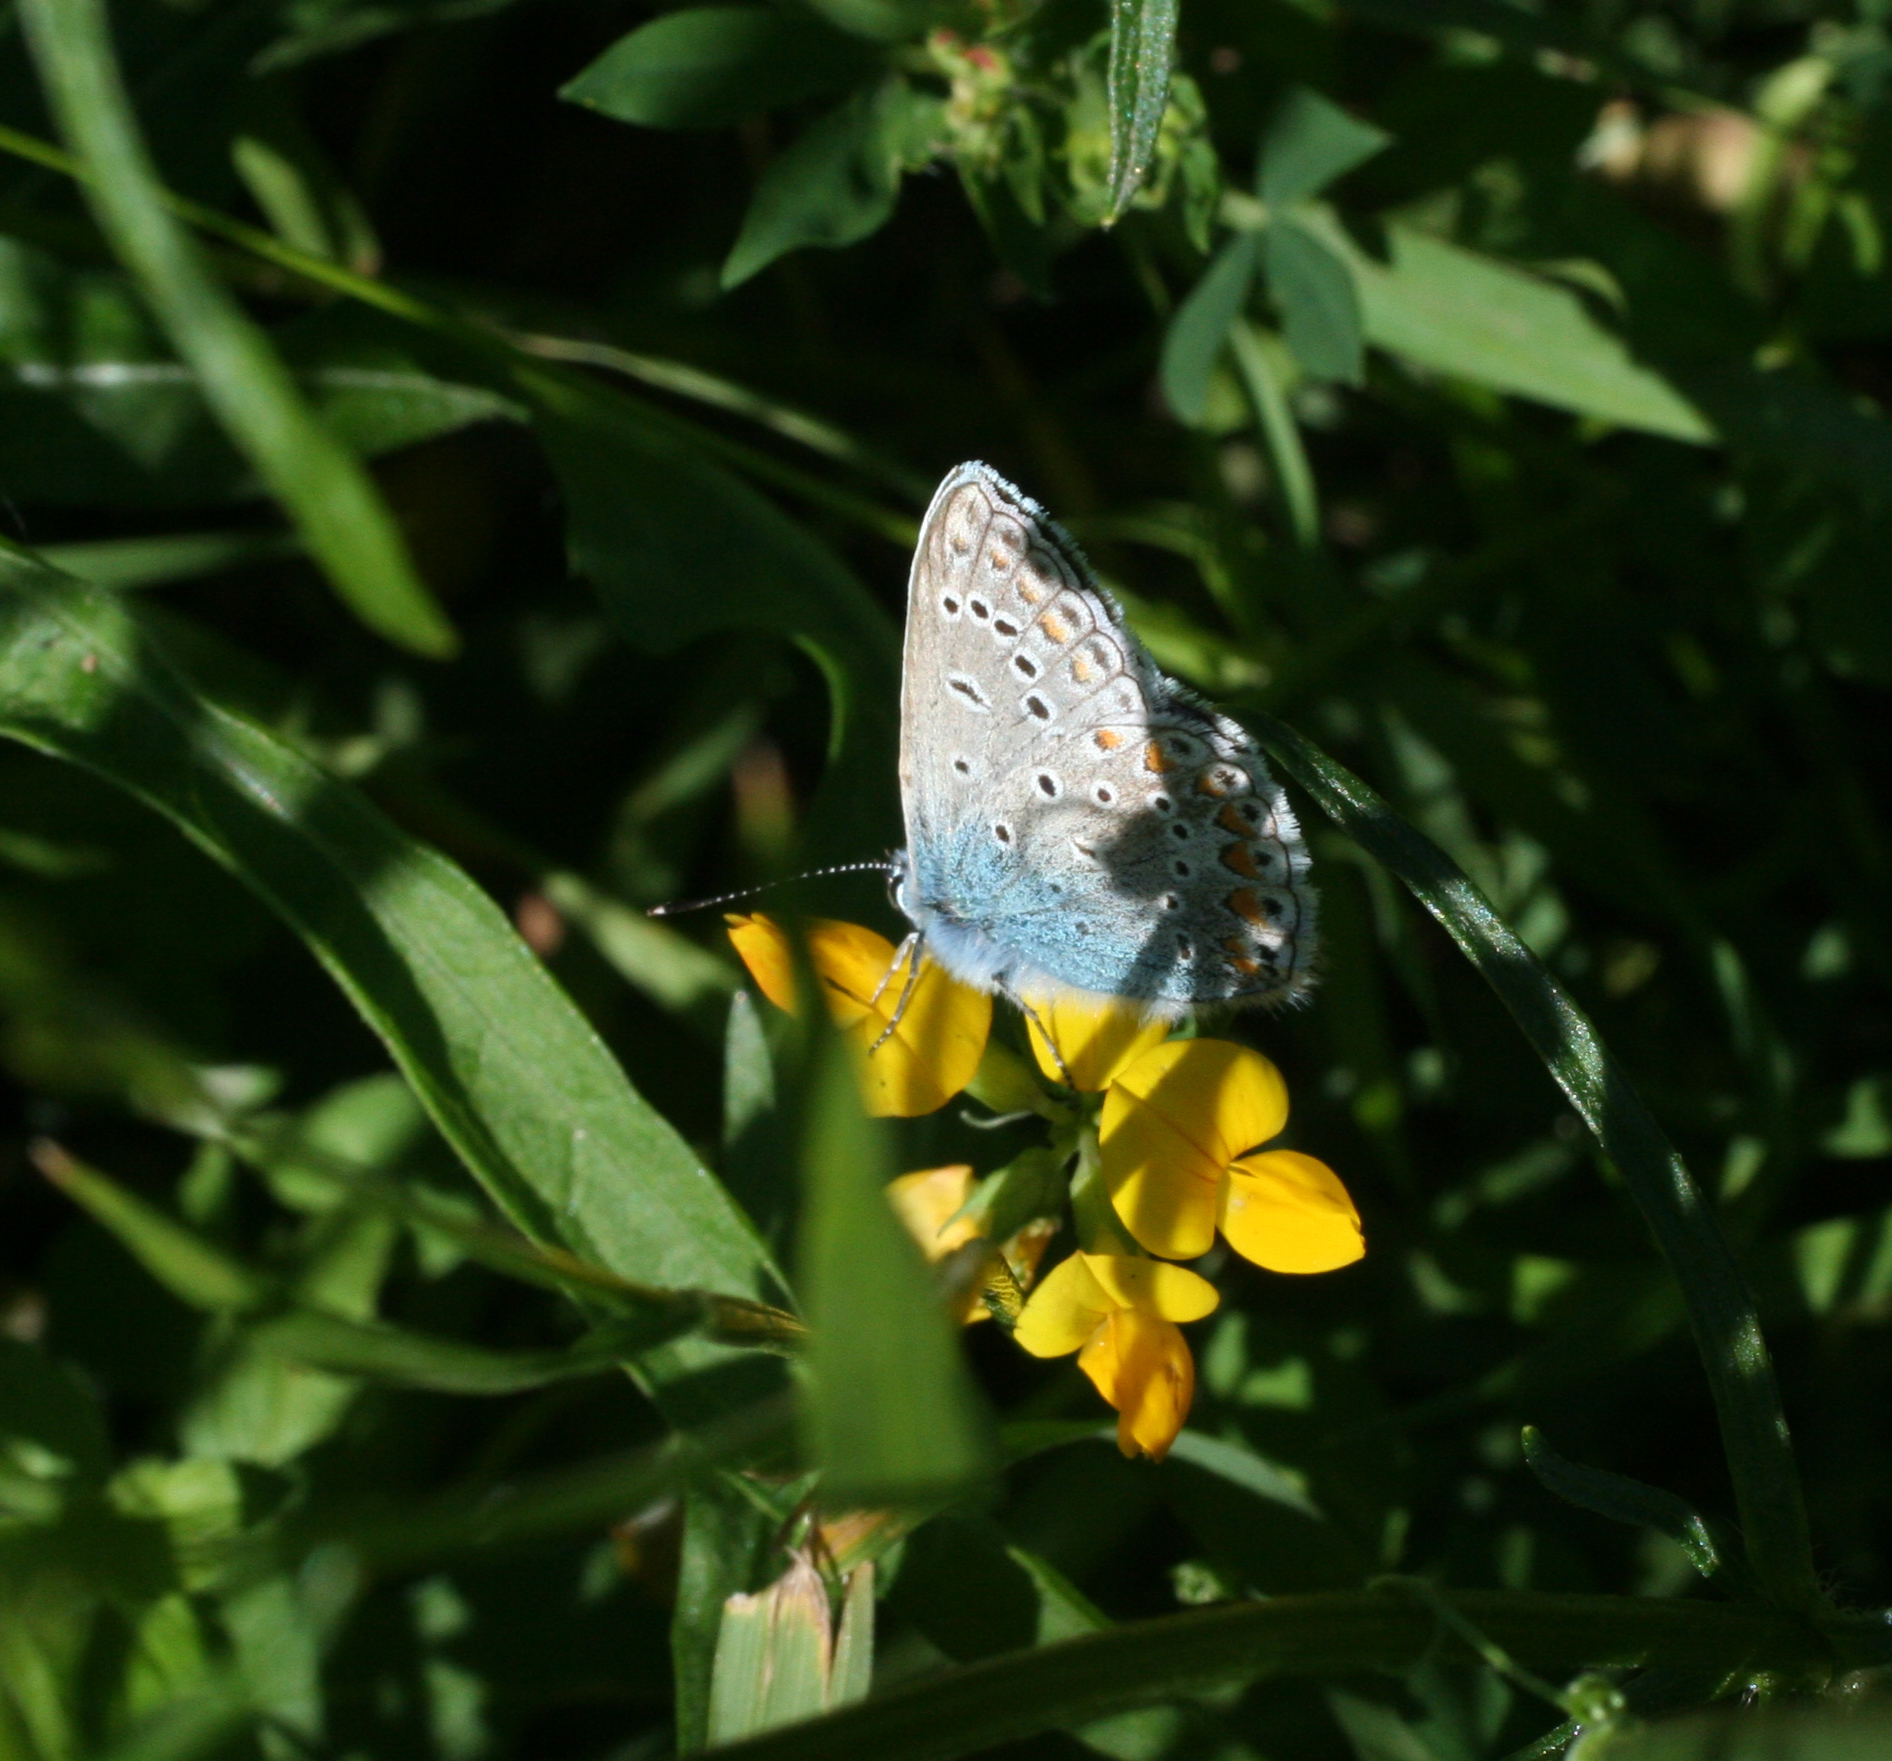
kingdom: Animalia
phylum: Arthropoda
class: Insecta
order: Lepidoptera
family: Lycaenidae
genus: Polyommatus
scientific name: Polyommatus icarus
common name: Common blue
